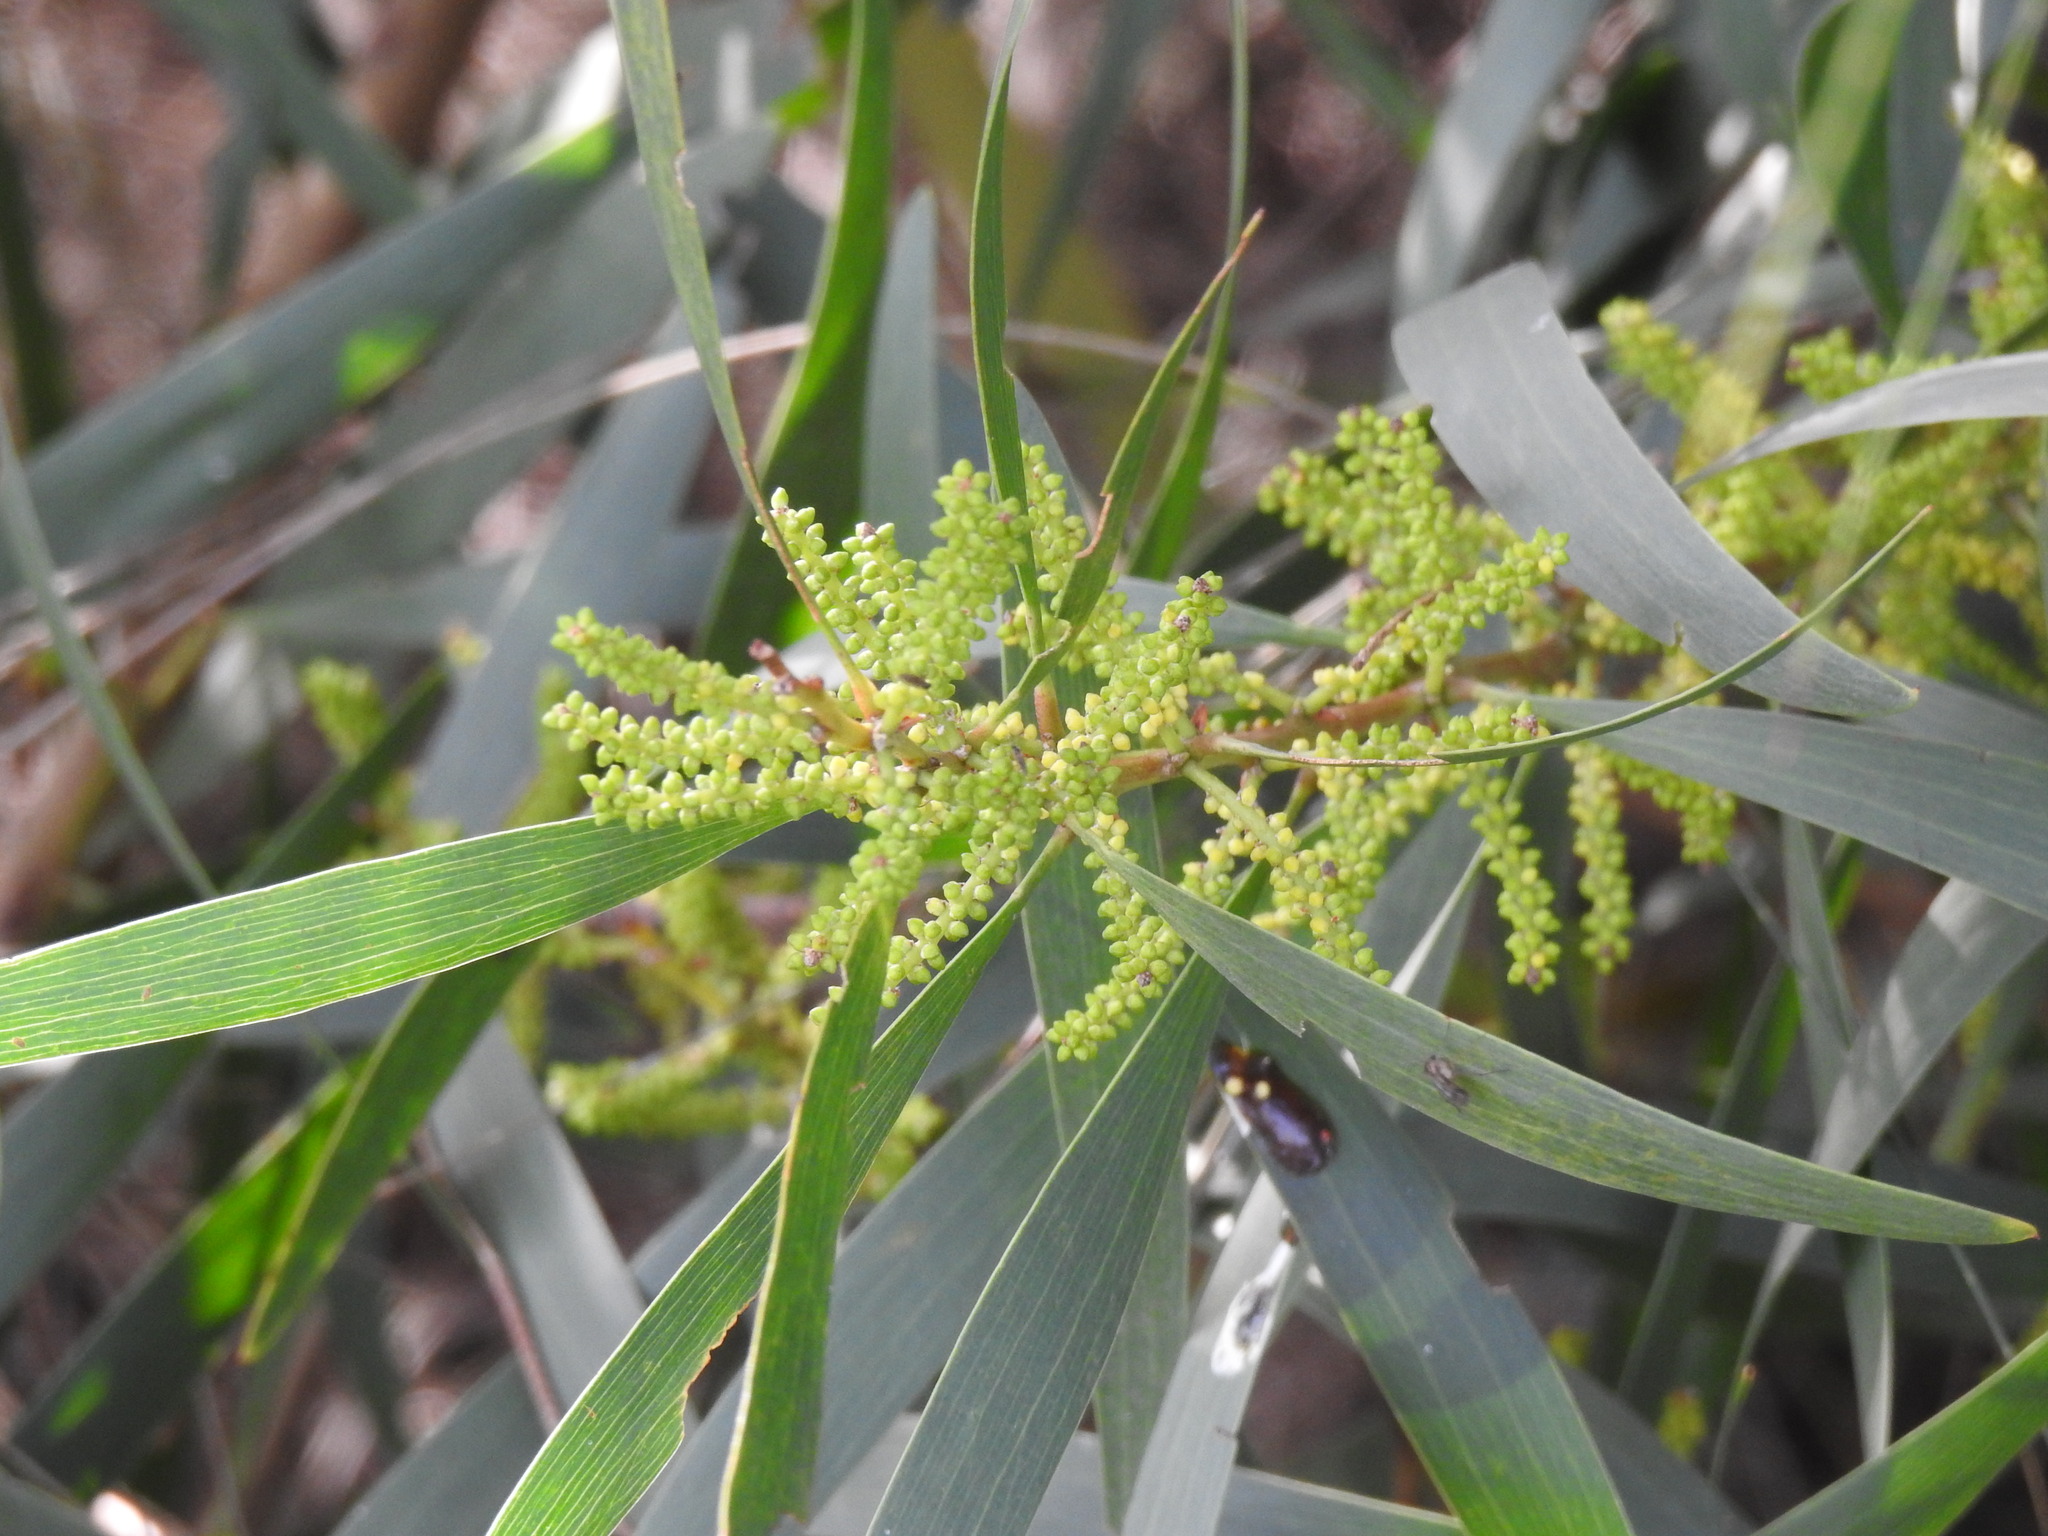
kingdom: Plantae
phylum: Tracheophyta
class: Magnoliopsida
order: Fabales
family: Fabaceae
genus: Acacia
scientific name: Acacia longifolia
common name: Sydney golden wattle
